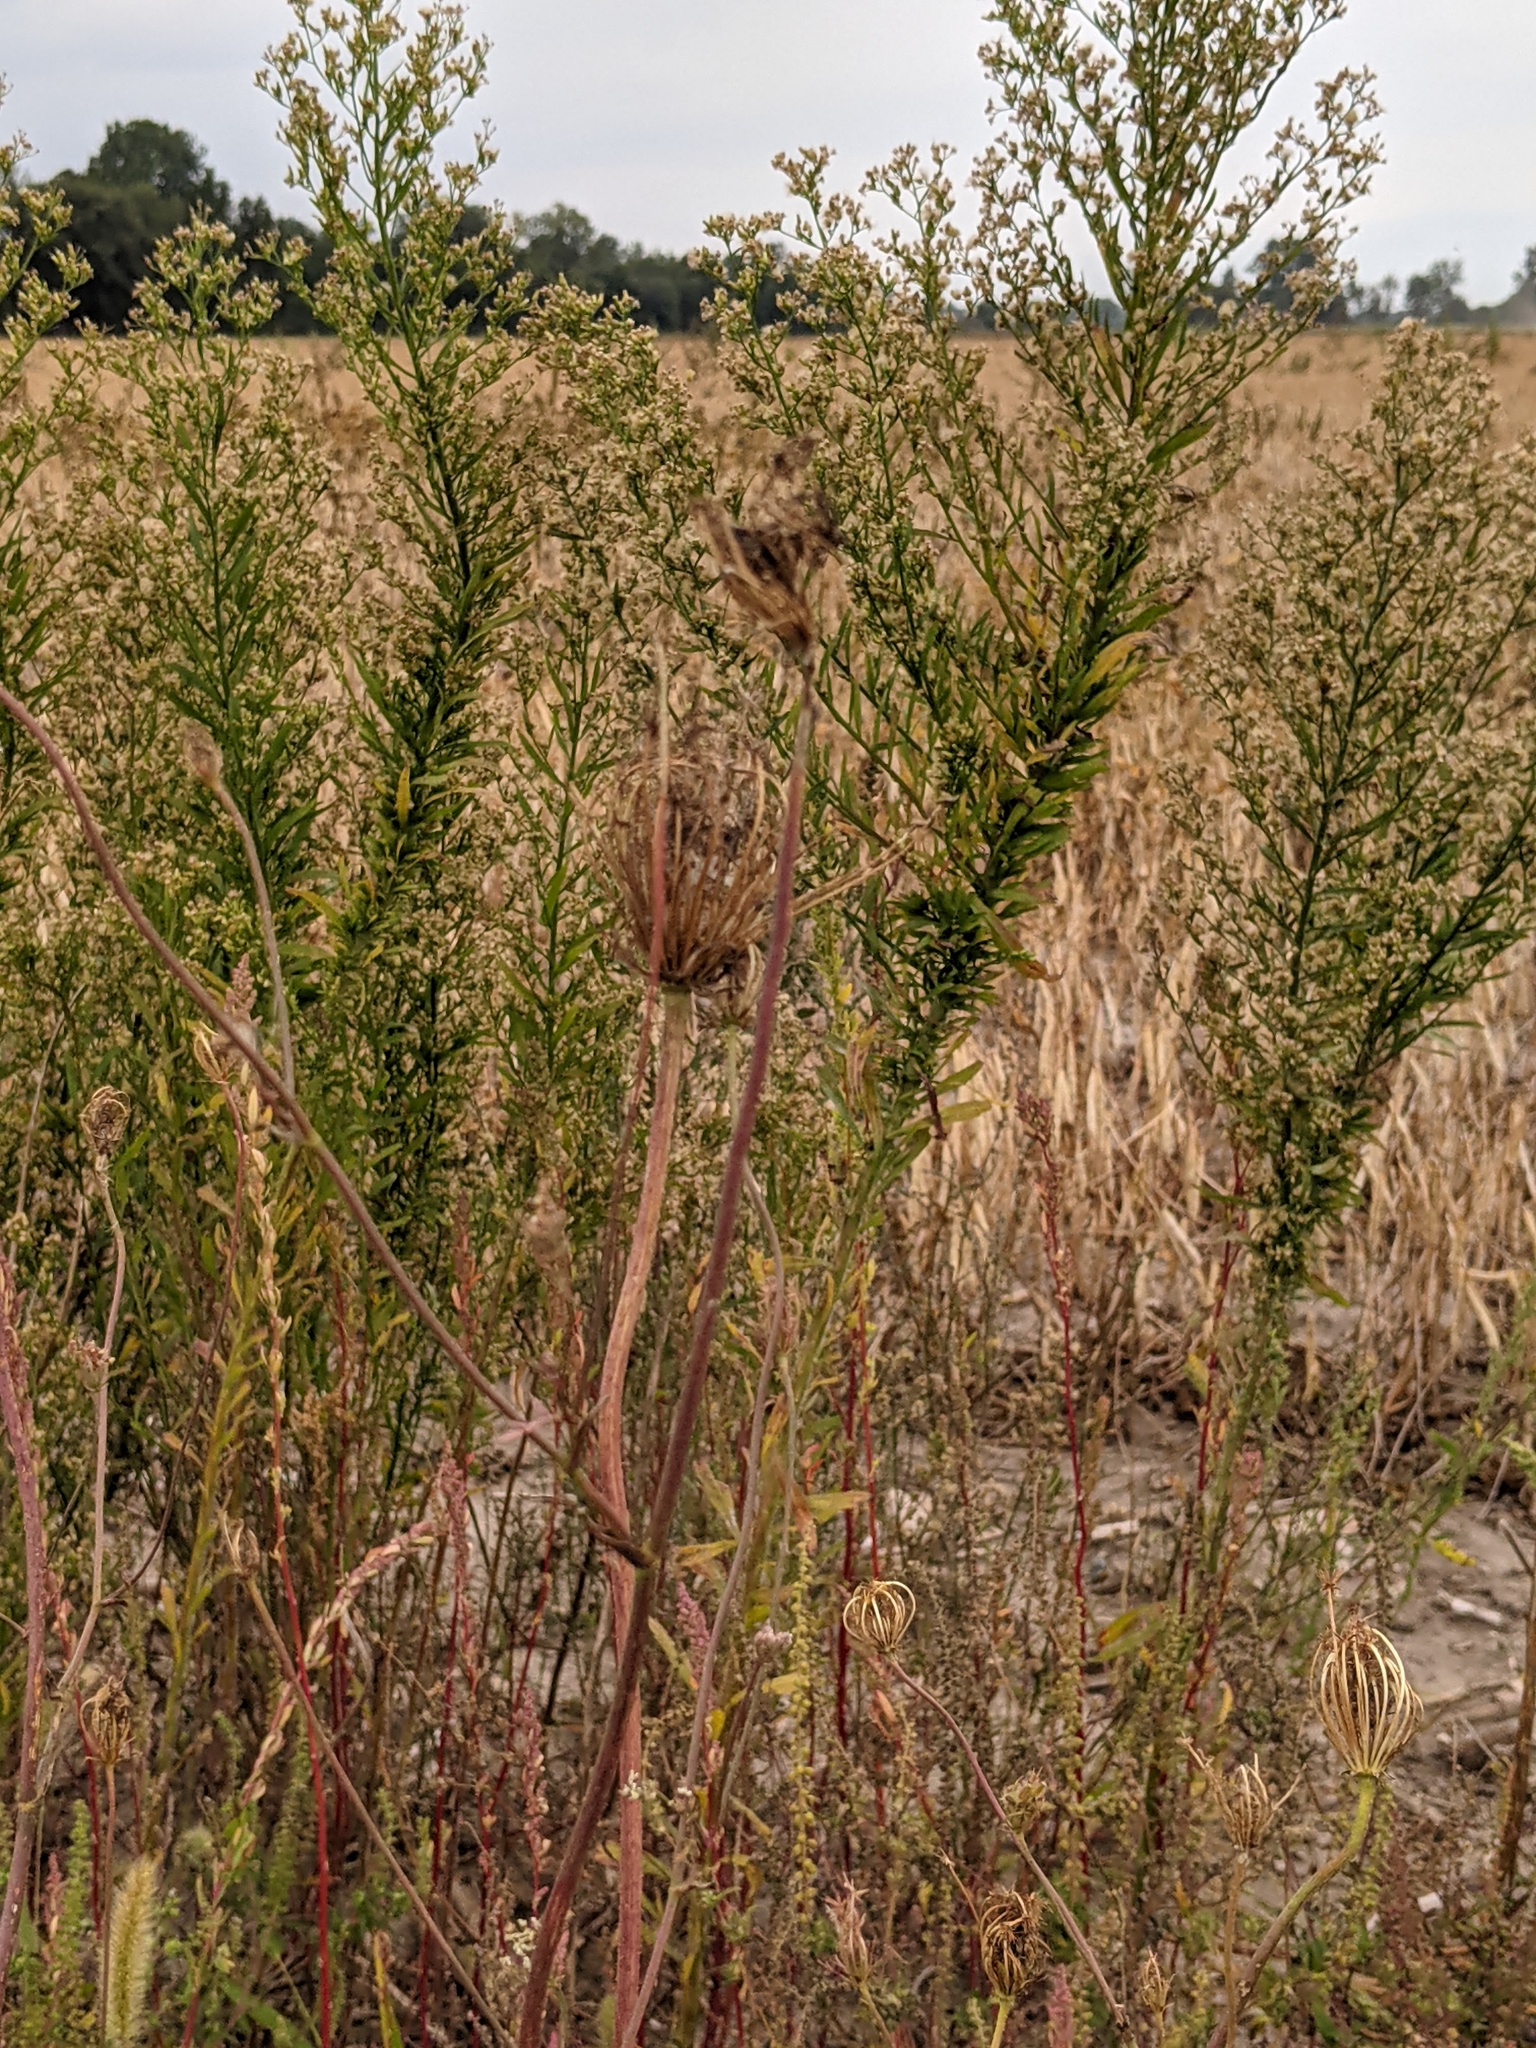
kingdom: Plantae
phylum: Tracheophyta
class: Magnoliopsida
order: Apiales
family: Apiaceae
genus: Daucus
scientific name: Daucus carota
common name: Wild carrot
